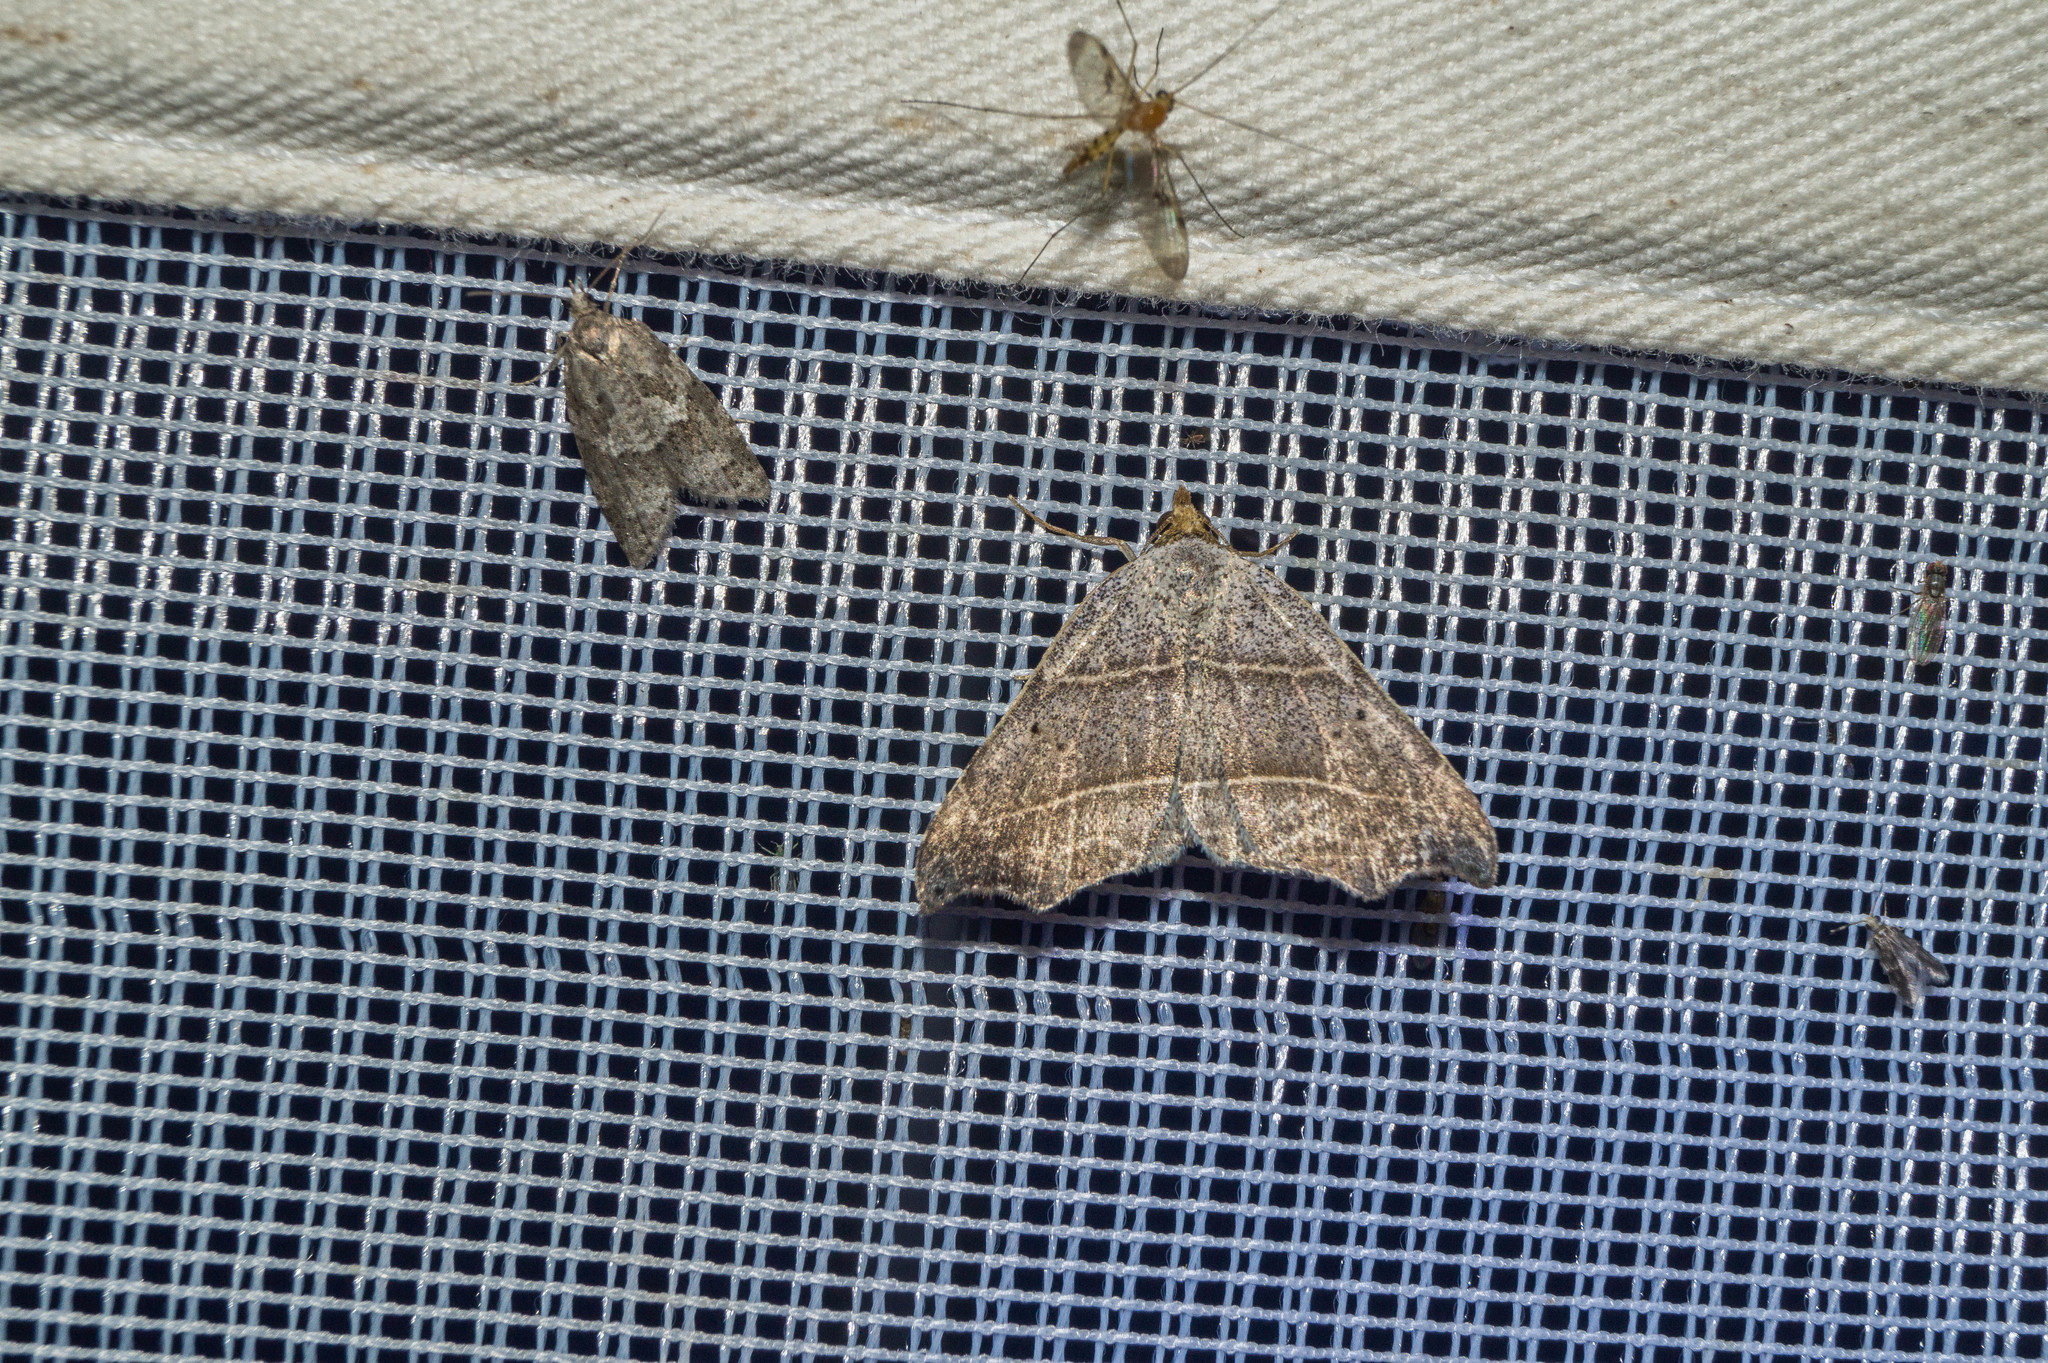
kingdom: Animalia
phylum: Arthropoda
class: Insecta
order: Lepidoptera
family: Erebidae
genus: Laspeyria
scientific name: Laspeyria flexula
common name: Beautiful hook-tip
